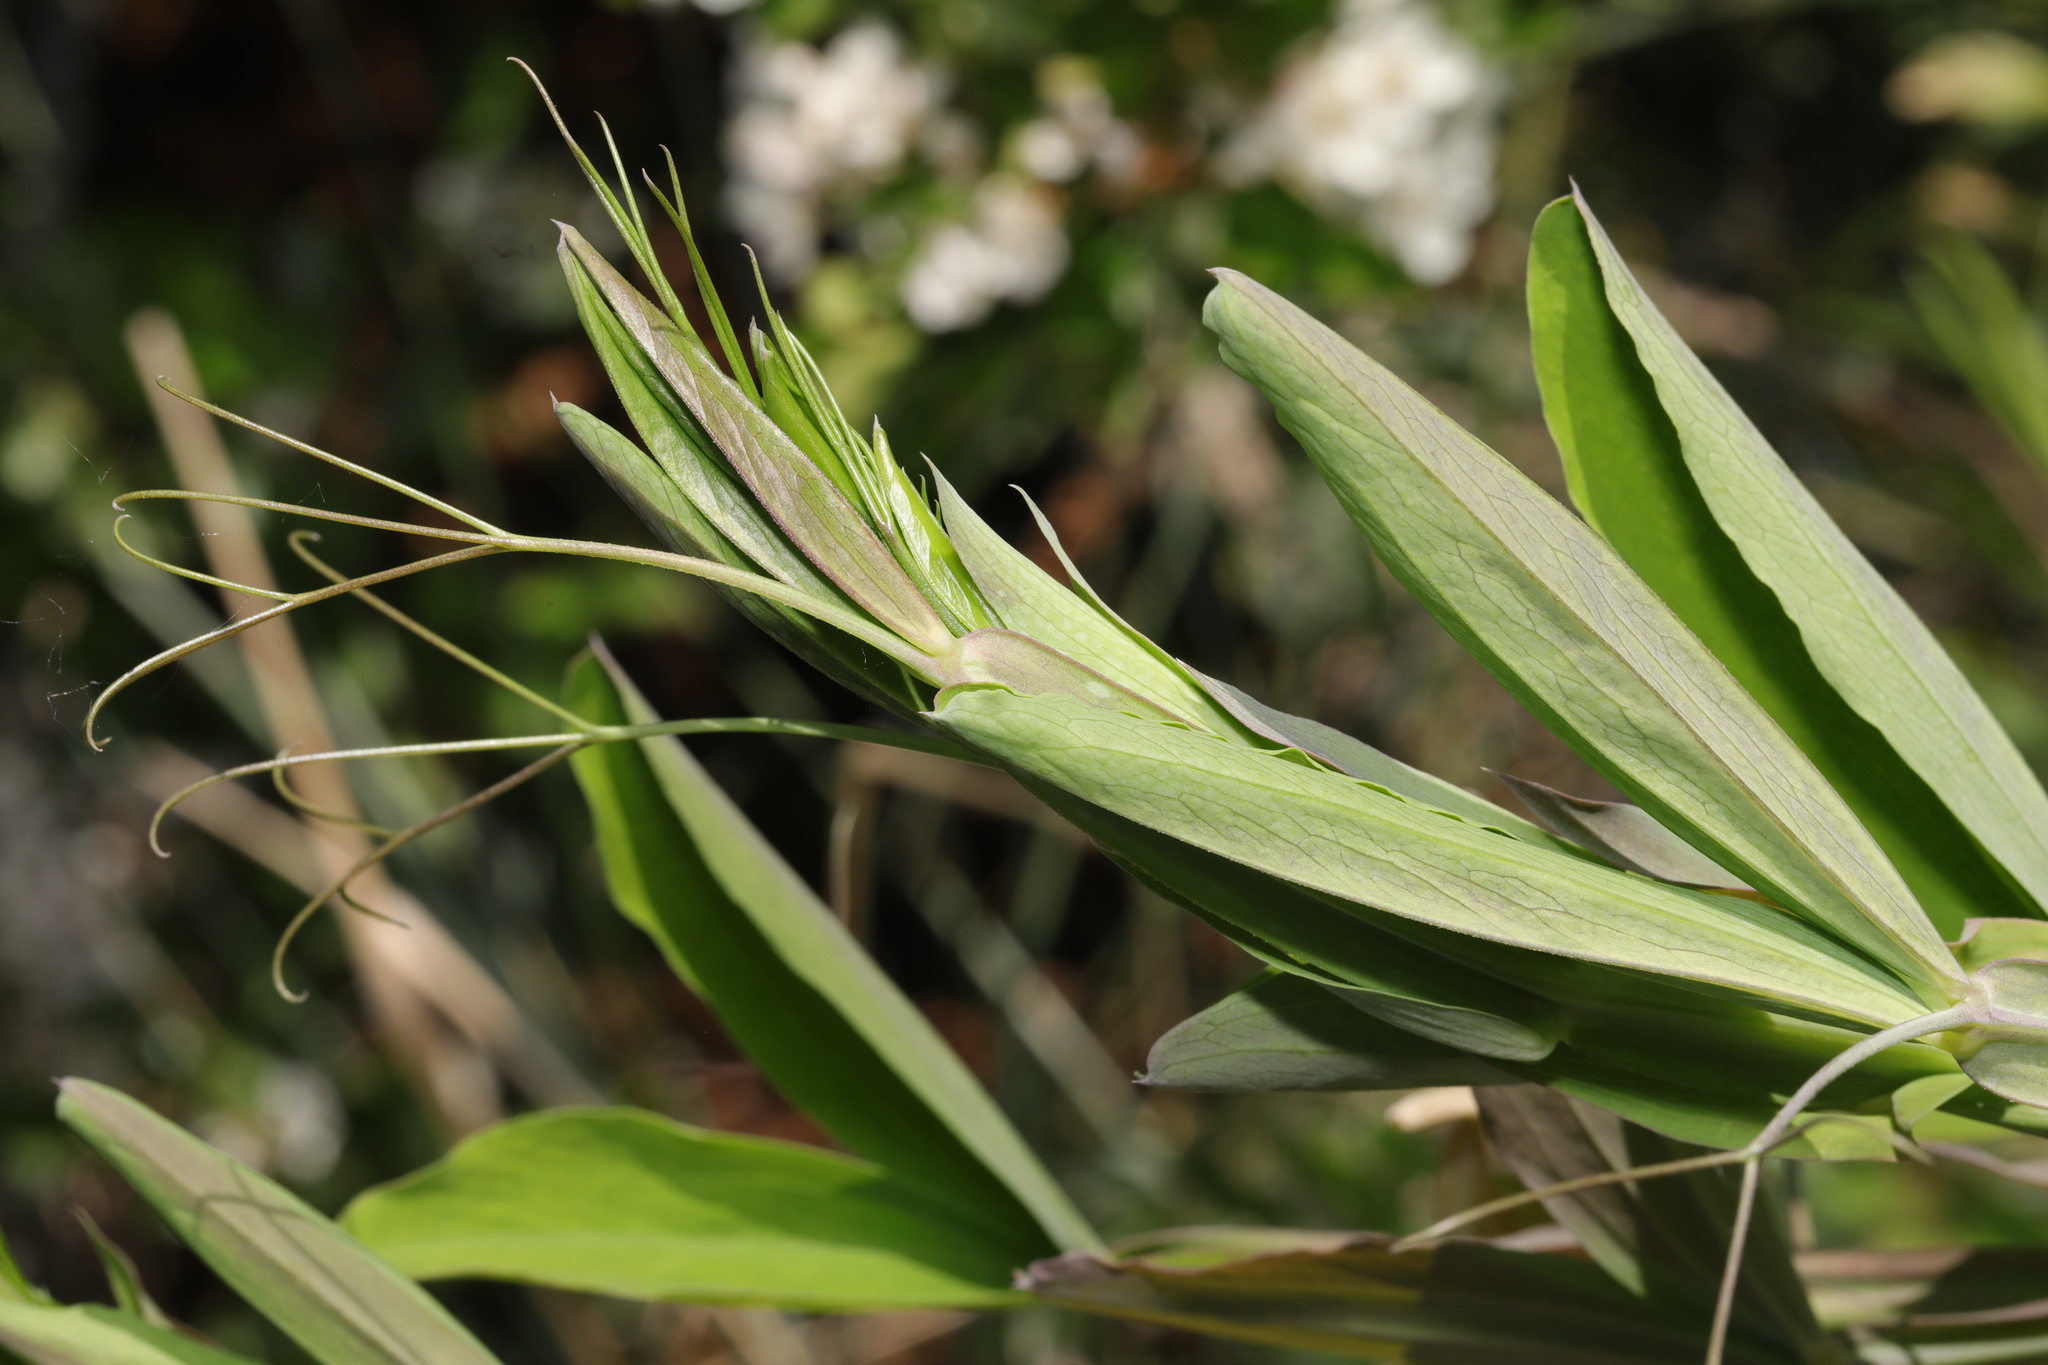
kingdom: Plantae
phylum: Tracheophyta
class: Magnoliopsida
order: Fabales
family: Fabaceae
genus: Lathyrus
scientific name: Lathyrus latifolius
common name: Perennial pea
